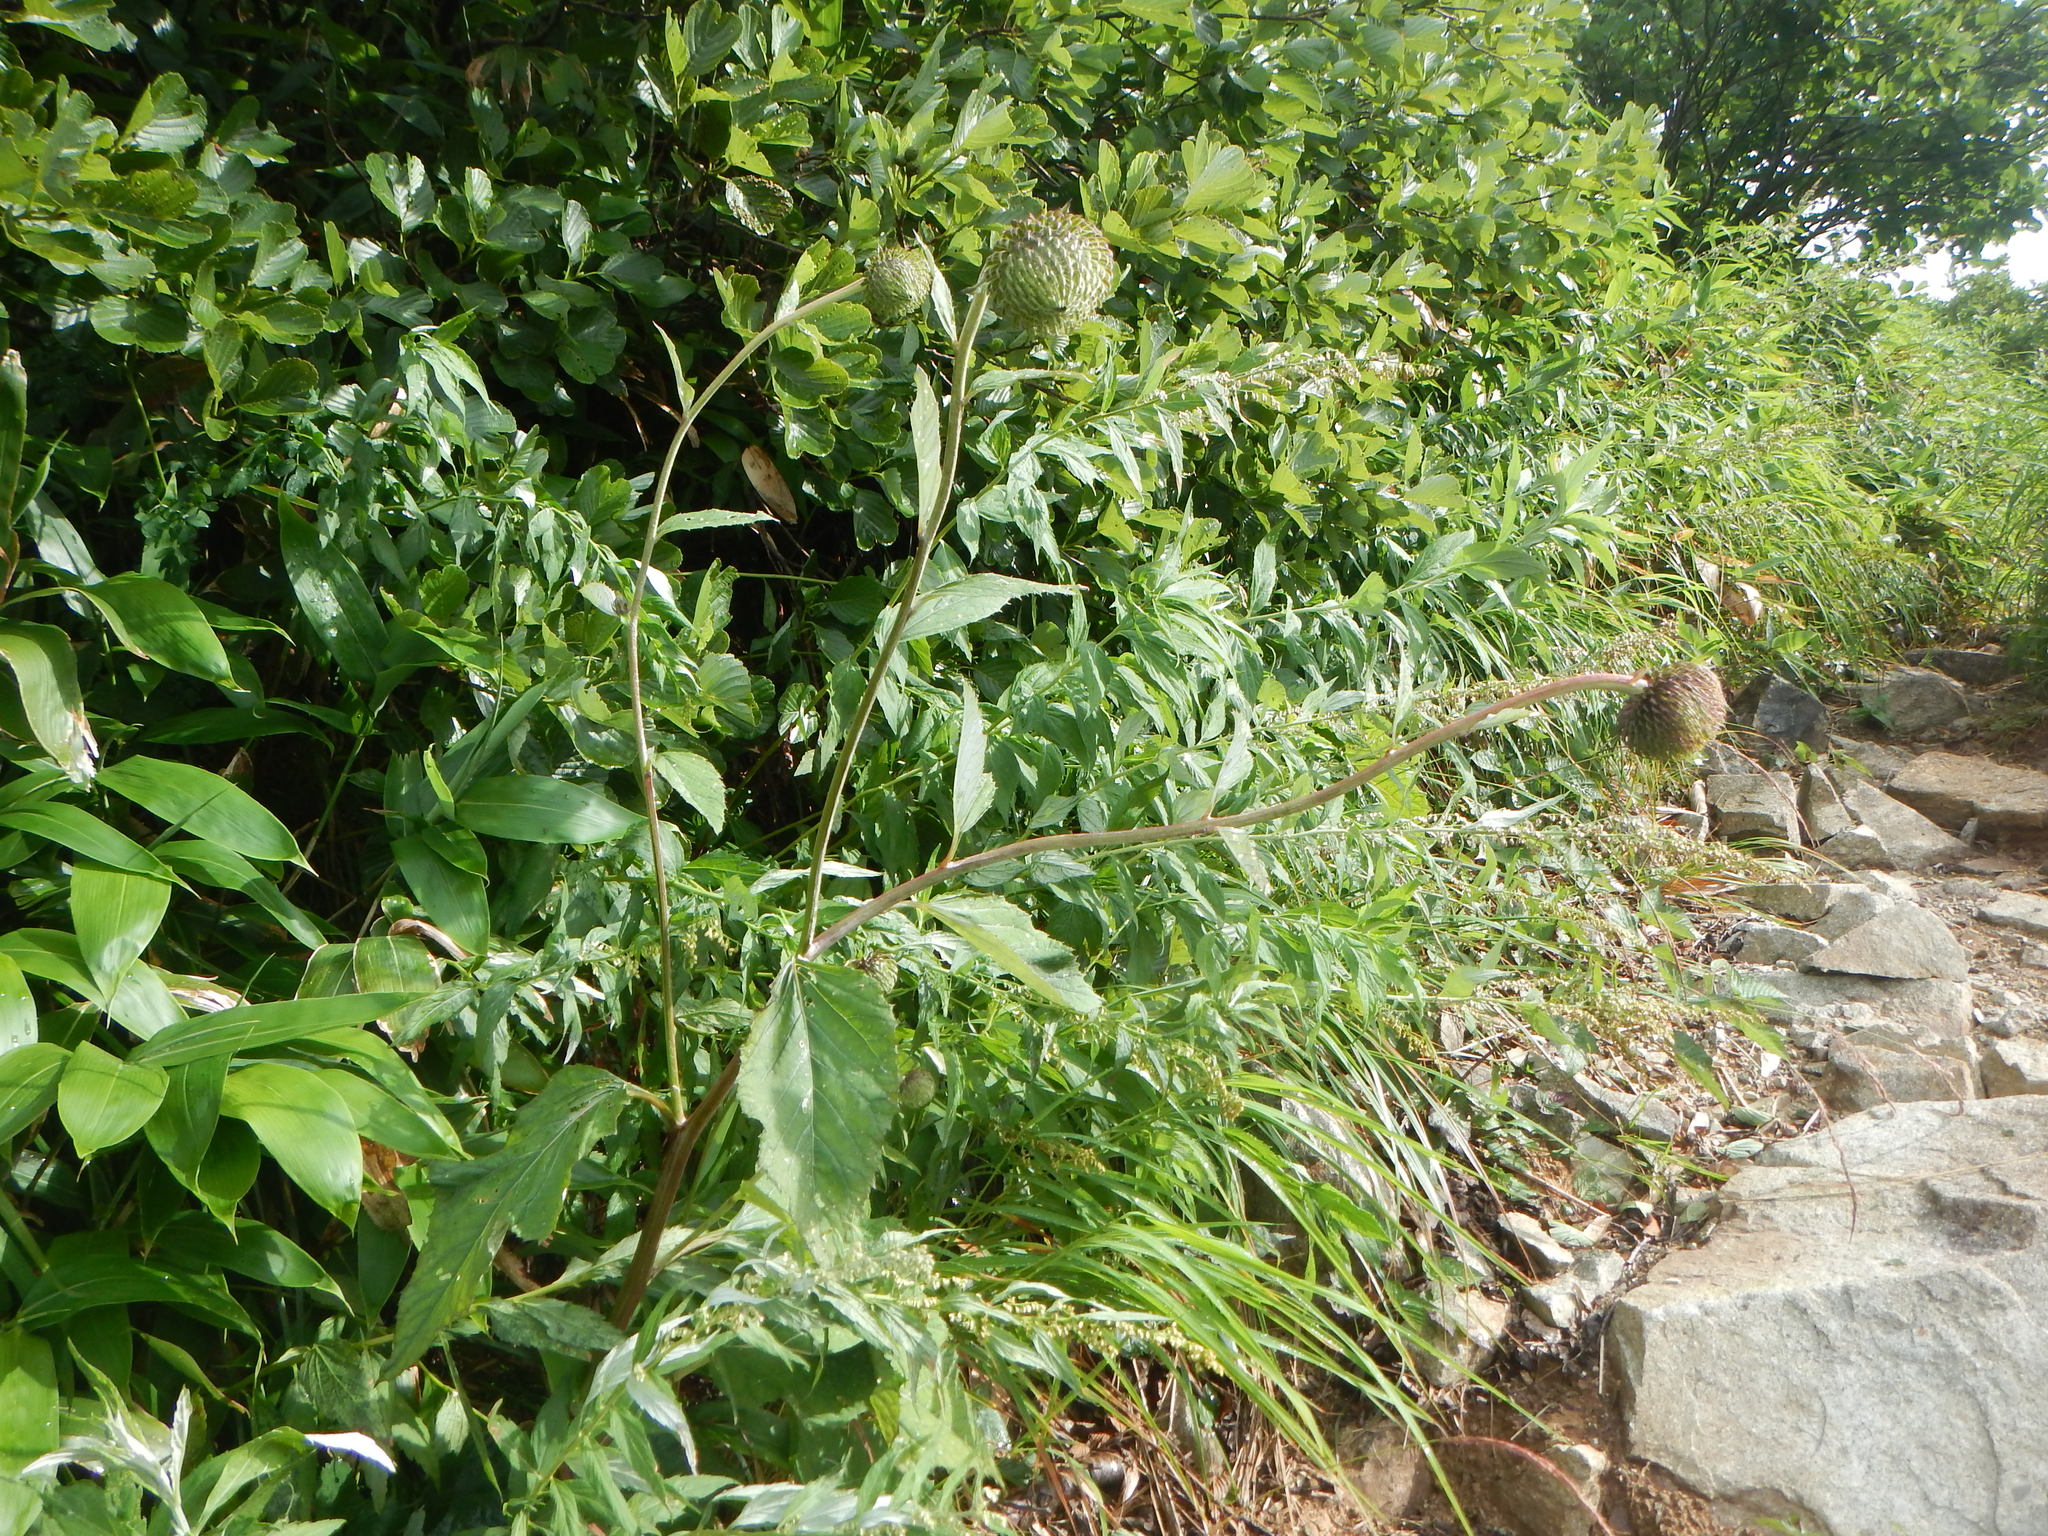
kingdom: Plantae
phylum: Tracheophyta
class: Magnoliopsida
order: Asterales
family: Asteraceae
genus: Synurus
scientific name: Synurus deltoides
